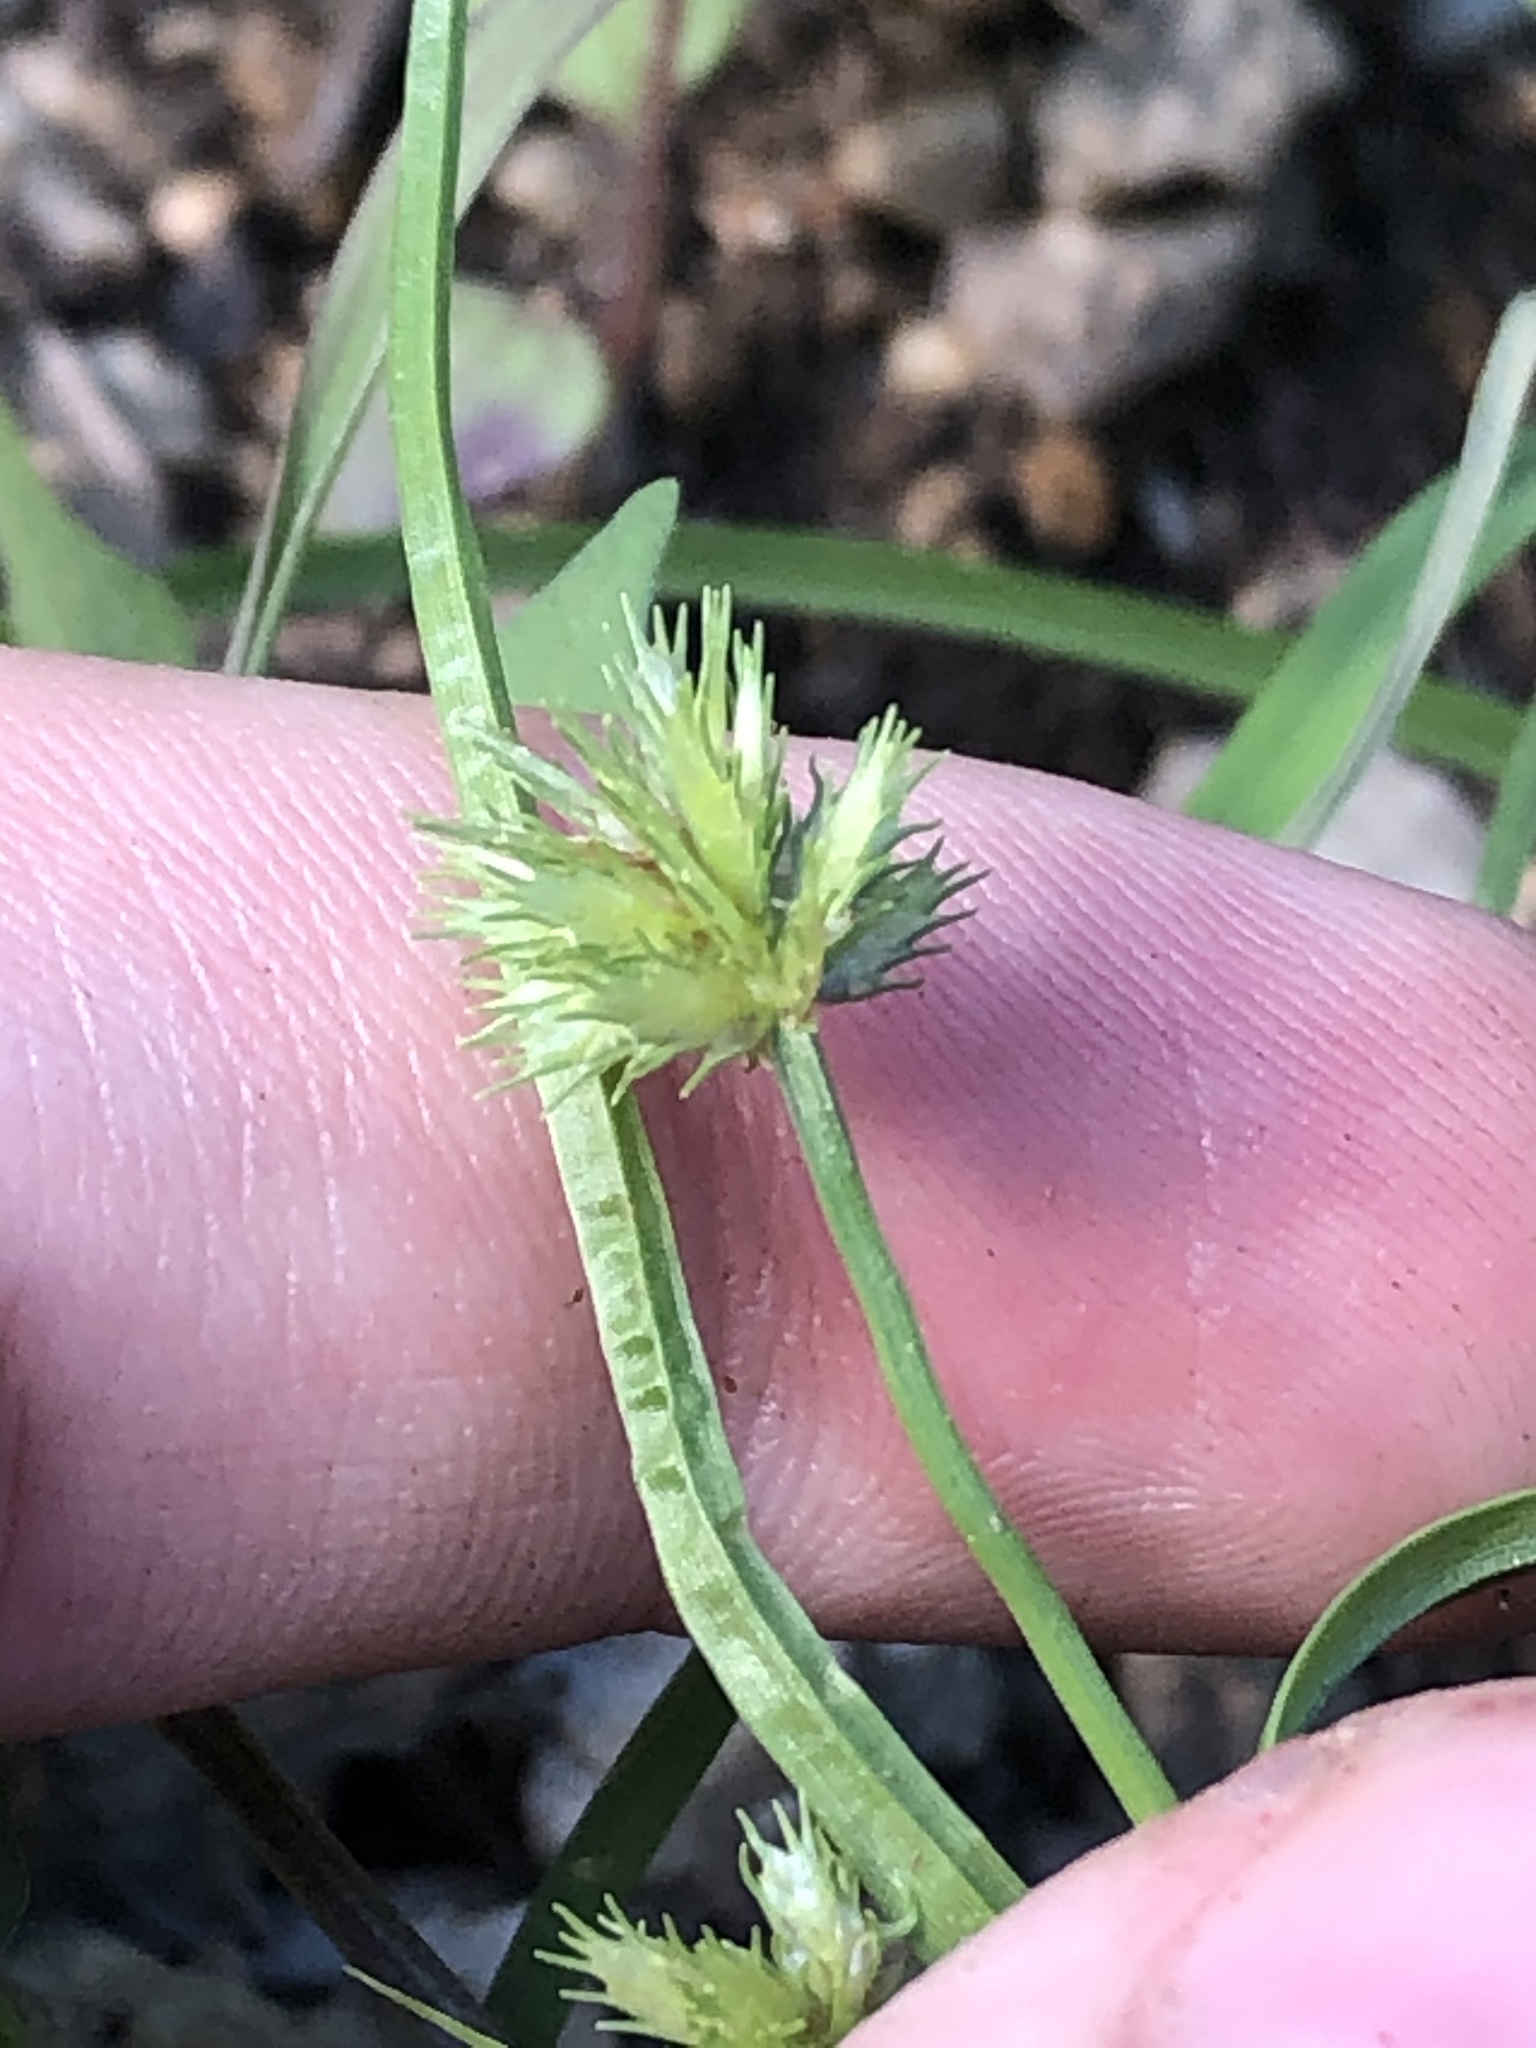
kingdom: Plantae
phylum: Tracheophyta
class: Liliopsida
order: Poales
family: Cyperaceae
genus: Cyperus
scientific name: Cyperus squarrosus
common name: Awned cyperus
